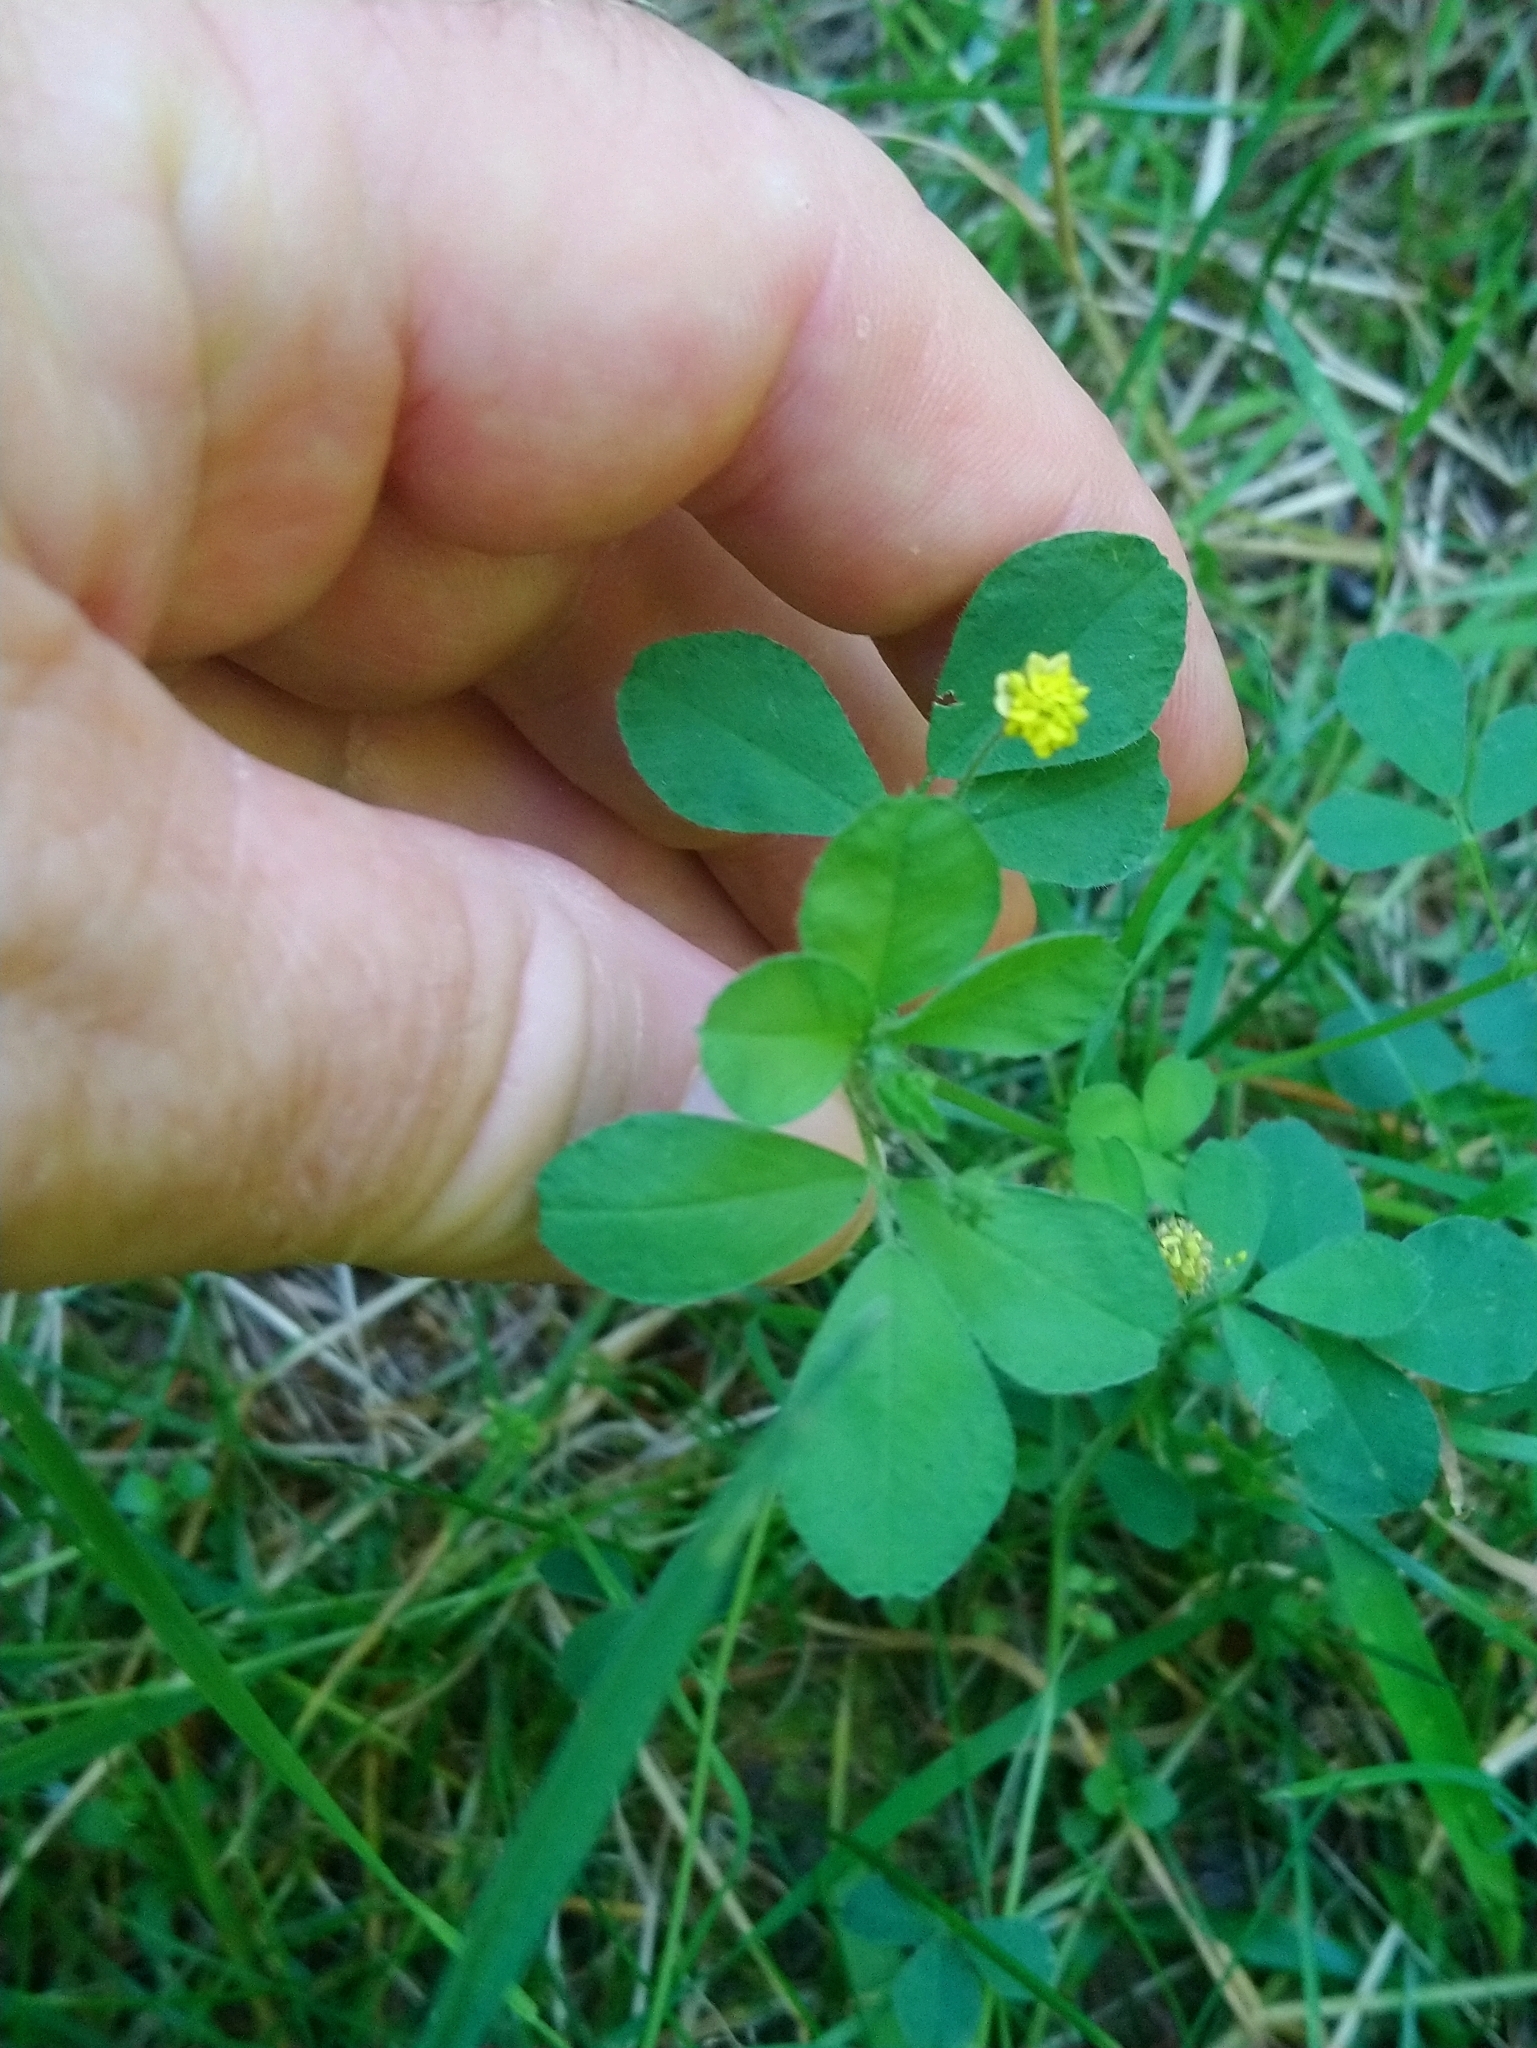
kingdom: Plantae
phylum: Tracheophyta
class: Magnoliopsida
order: Fabales
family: Fabaceae
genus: Medicago
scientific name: Medicago lupulina
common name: Black medick
